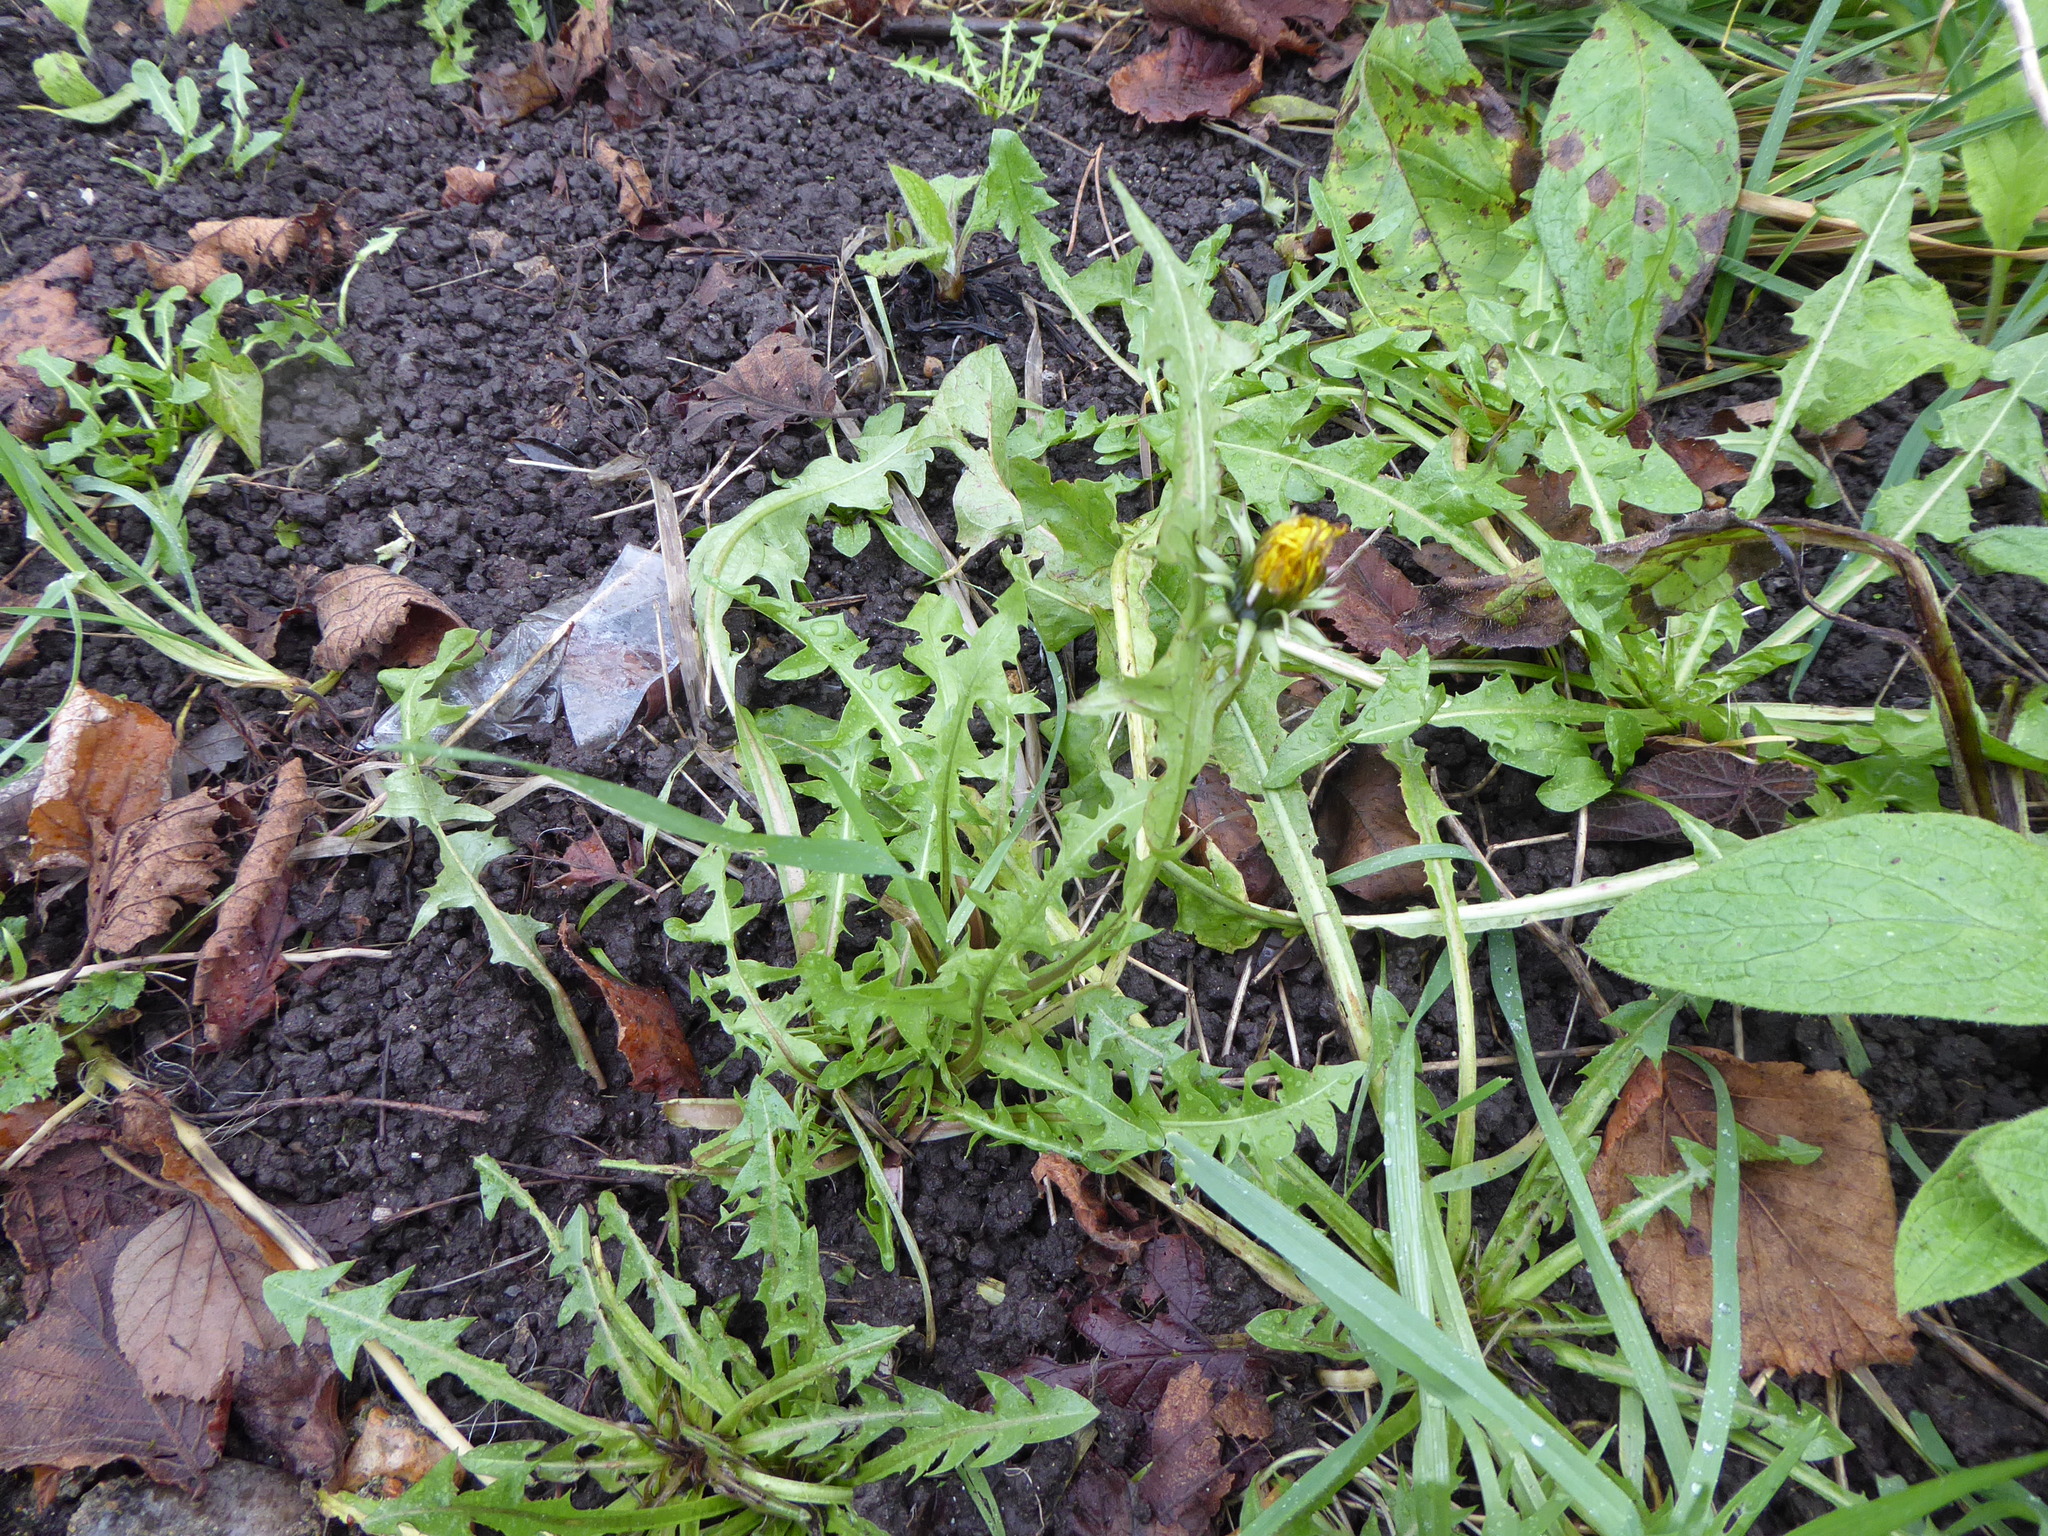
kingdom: Plantae
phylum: Tracheophyta
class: Magnoliopsida
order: Asterales
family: Asteraceae
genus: Taraxacum
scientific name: Taraxacum
